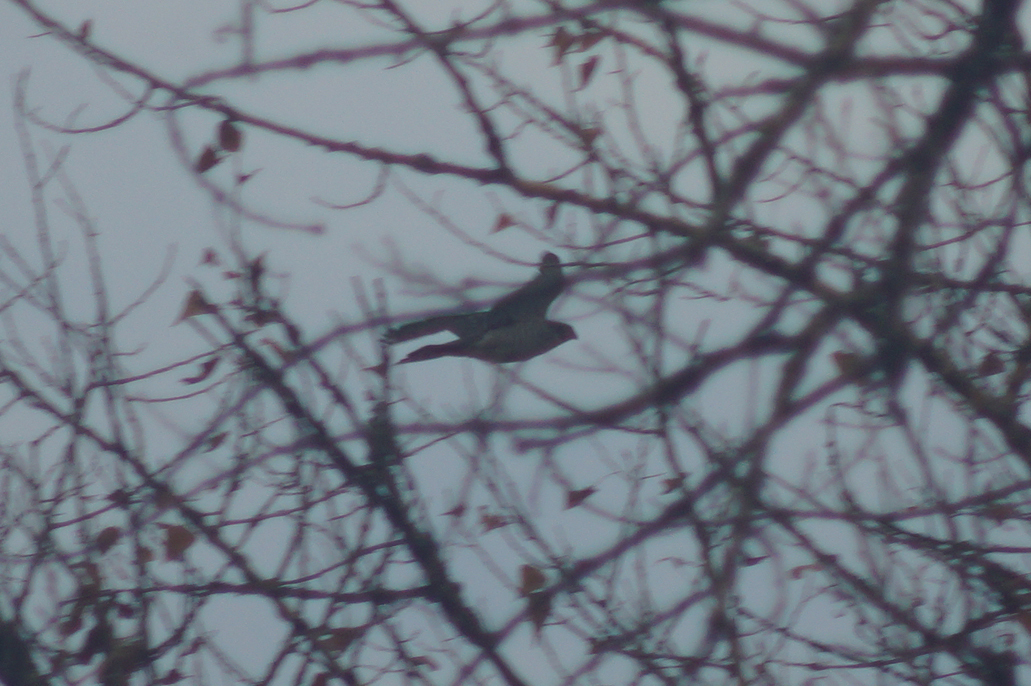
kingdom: Animalia
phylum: Chordata
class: Aves
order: Accipitriformes
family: Accipitridae
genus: Accipiter
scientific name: Accipiter nisus
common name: Eurasian sparrowhawk
